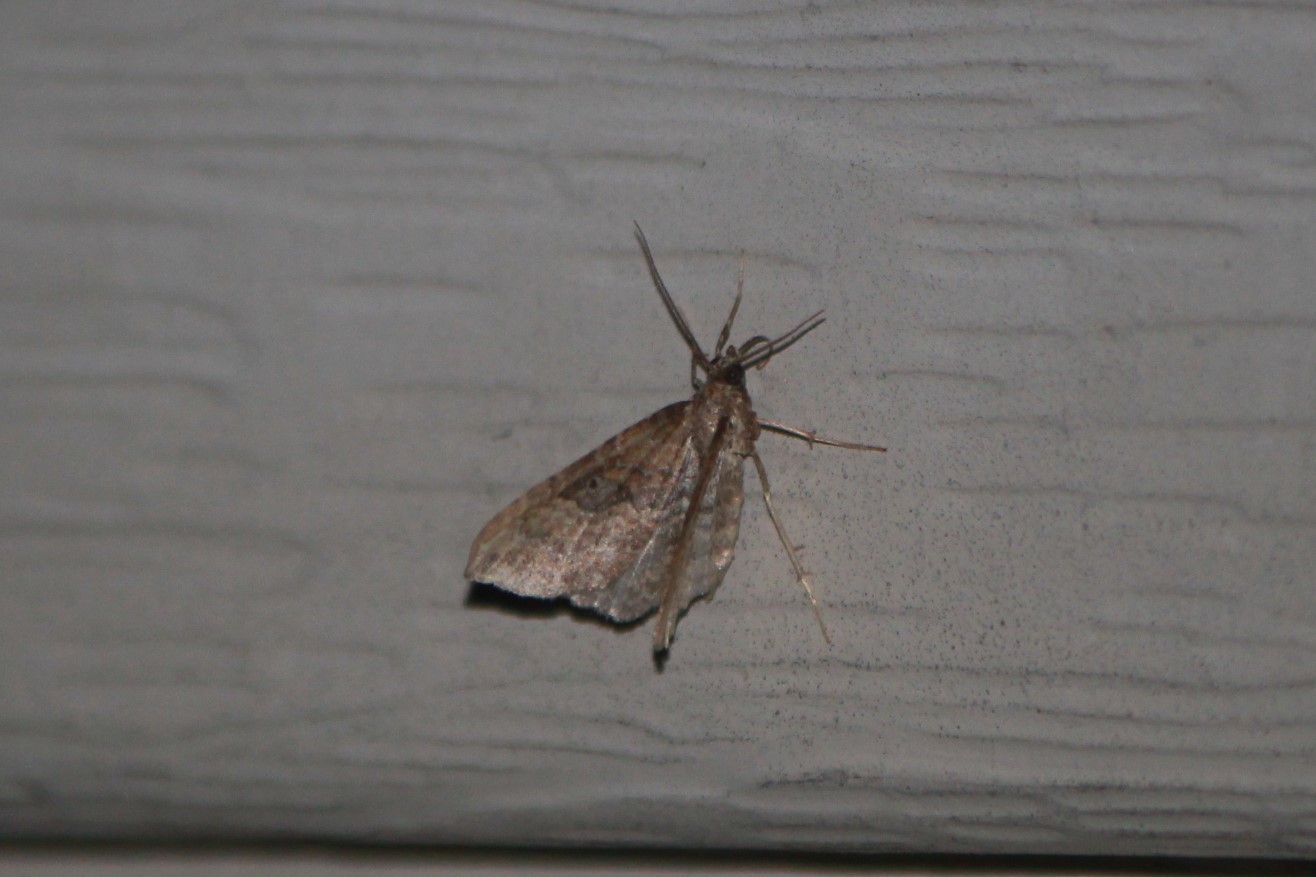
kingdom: Animalia
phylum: Arthropoda
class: Insecta
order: Lepidoptera
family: Geometridae
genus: Orthonama
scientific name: Orthonama obstipata
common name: The gem
